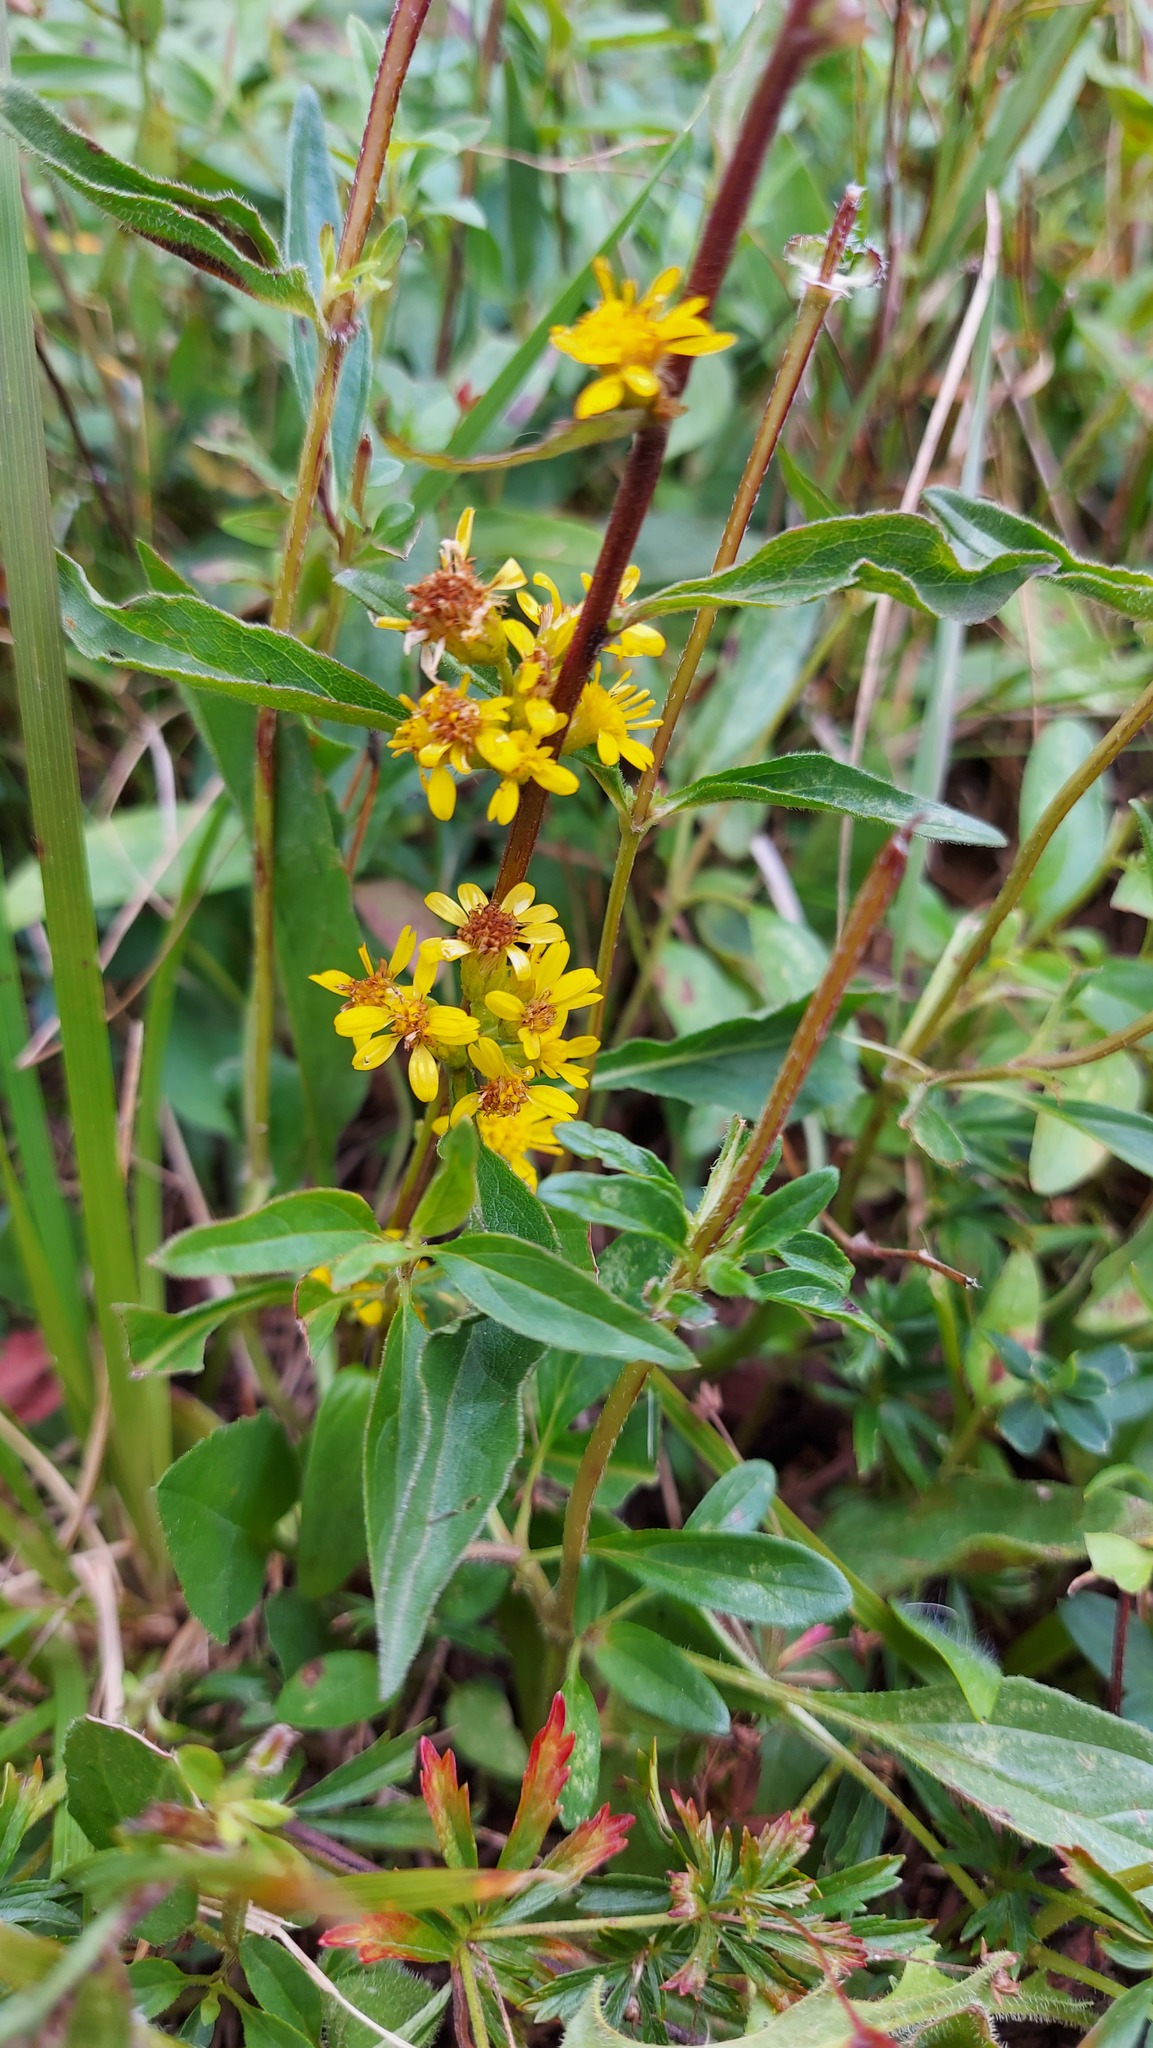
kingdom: Plantae
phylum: Tracheophyta
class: Magnoliopsida
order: Asterales
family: Asteraceae
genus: Solidago
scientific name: Solidago virgaurea
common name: Goldenrod
